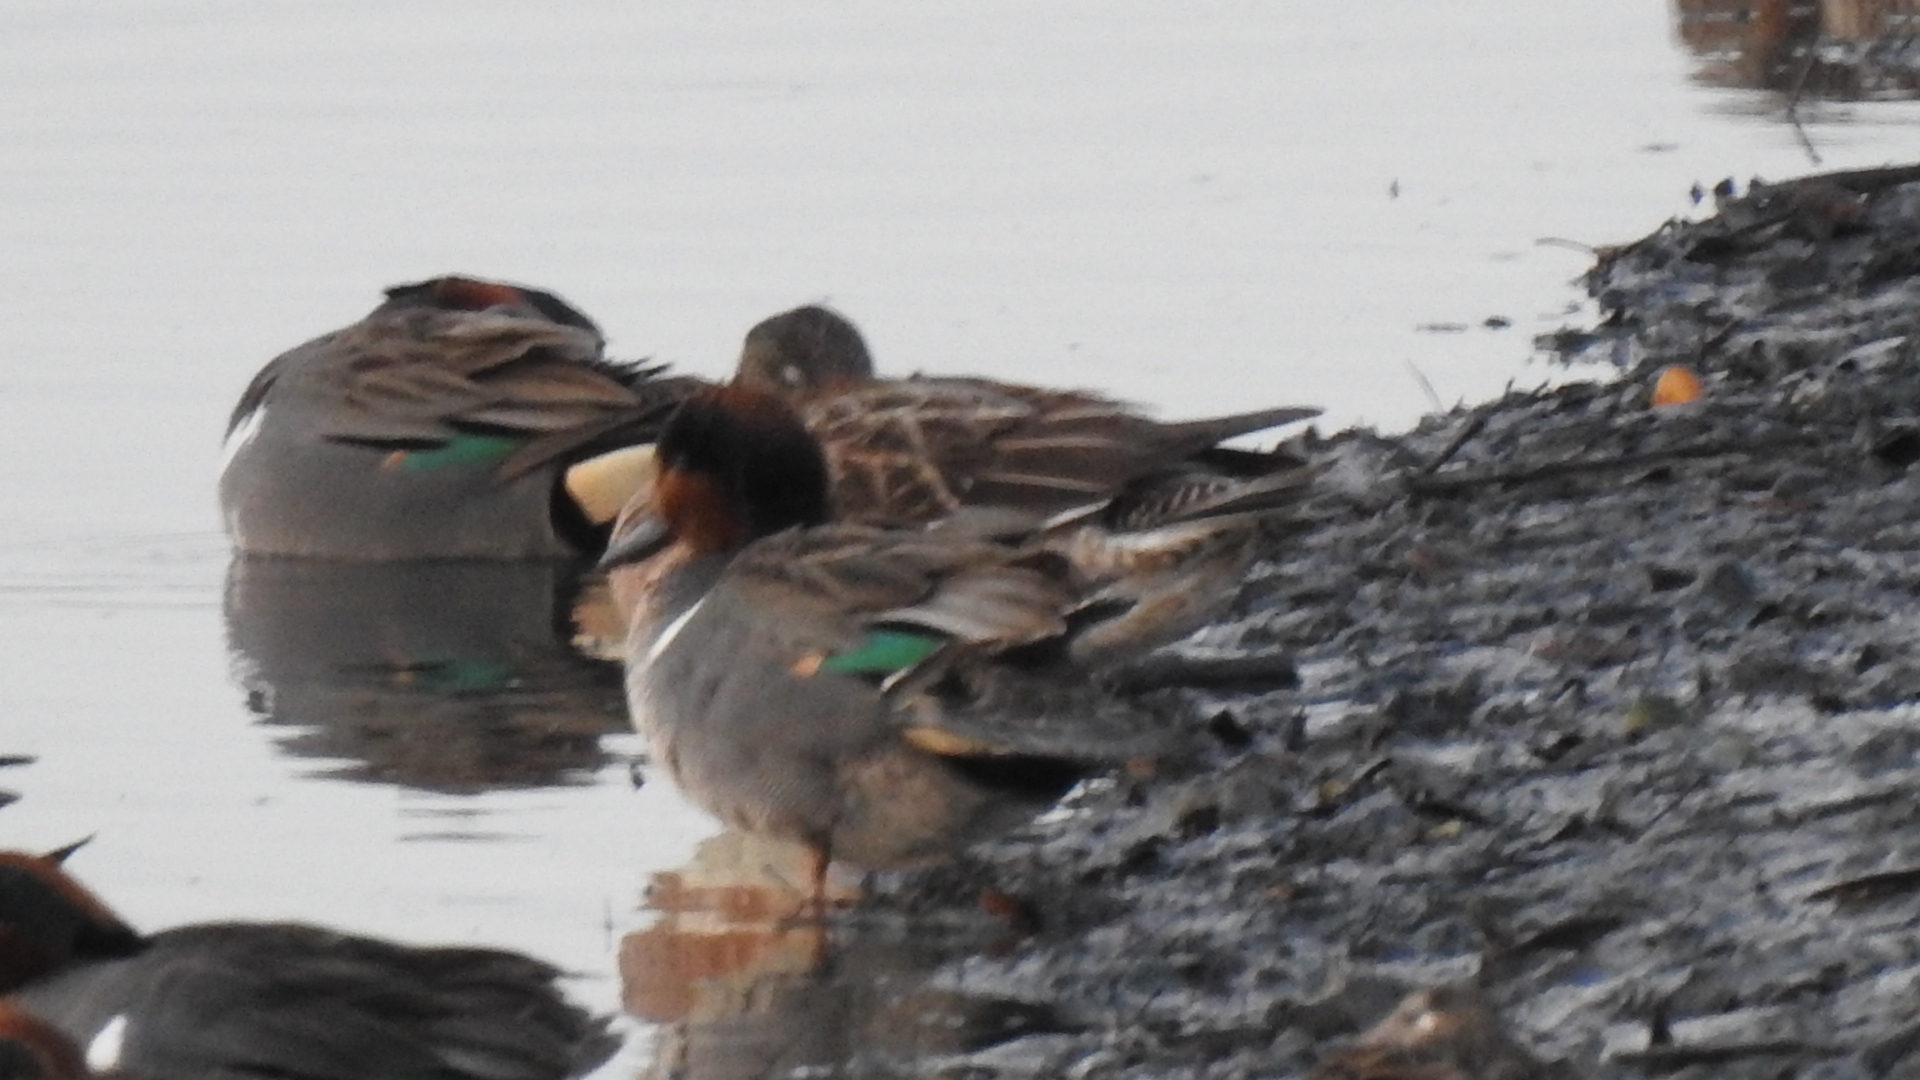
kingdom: Animalia
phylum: Chordata
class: Aves
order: Anseriformes
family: Anatidae
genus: Anas
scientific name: Anas crecca
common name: Eurasian teal
